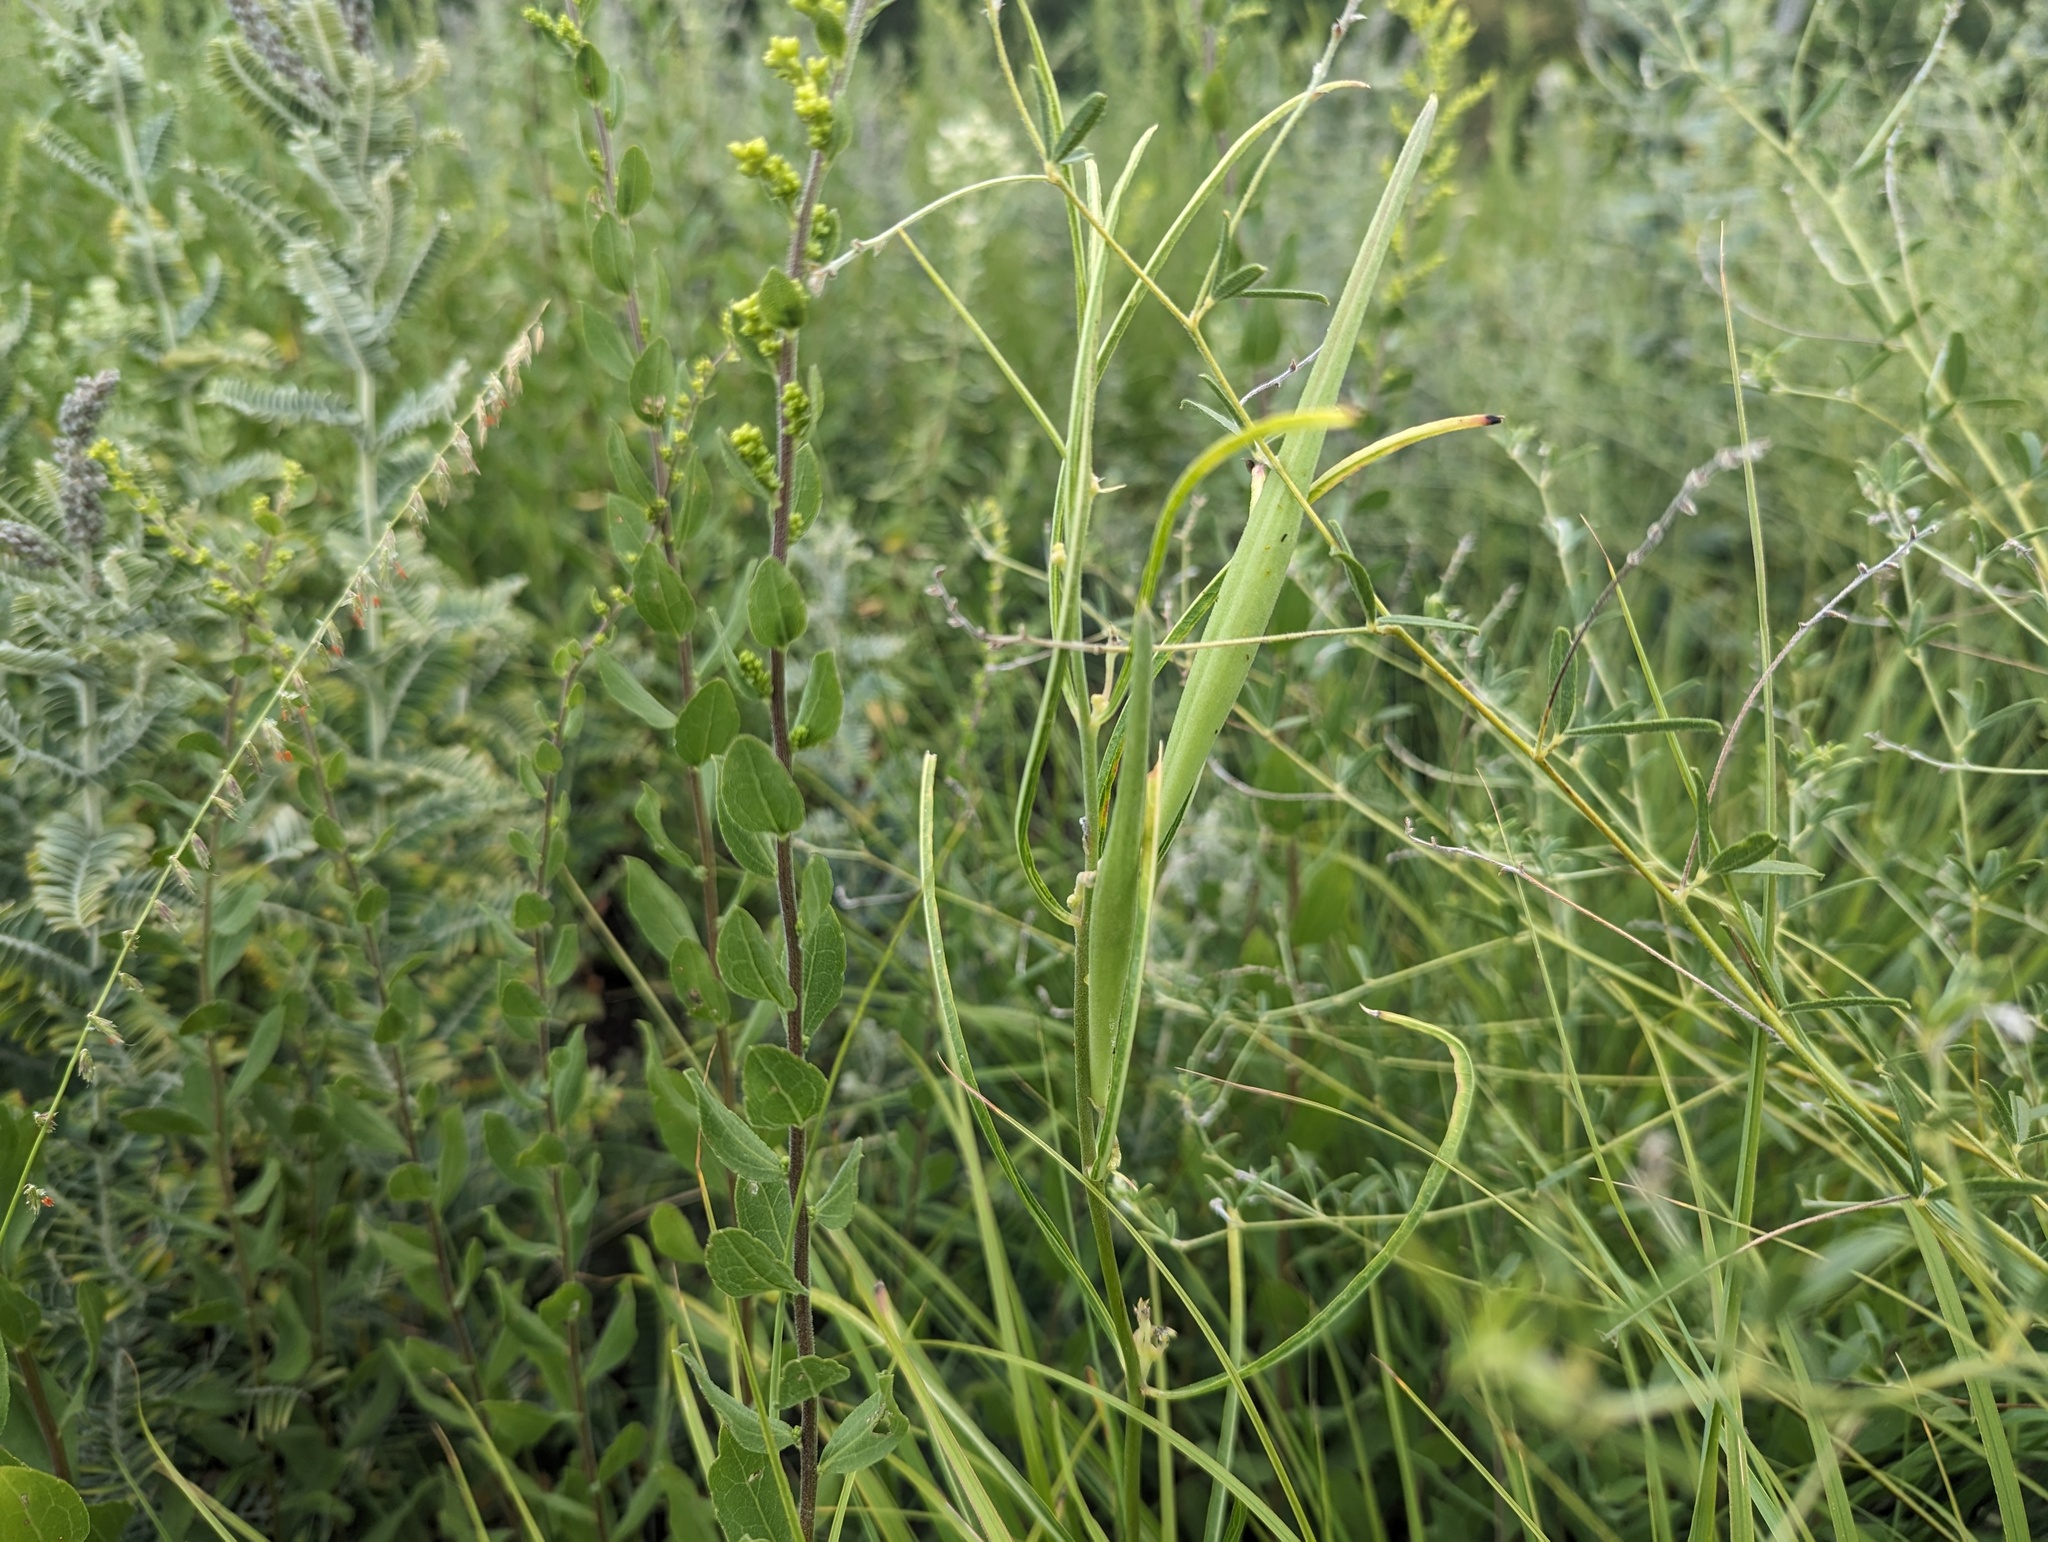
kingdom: Plantae
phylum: Tracheophyta
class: Magnoliopsida
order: Gentianales
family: Apocynaceae
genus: Asclepias
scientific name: Asclepias stenophylla
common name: Narrow-leaf milkweed
